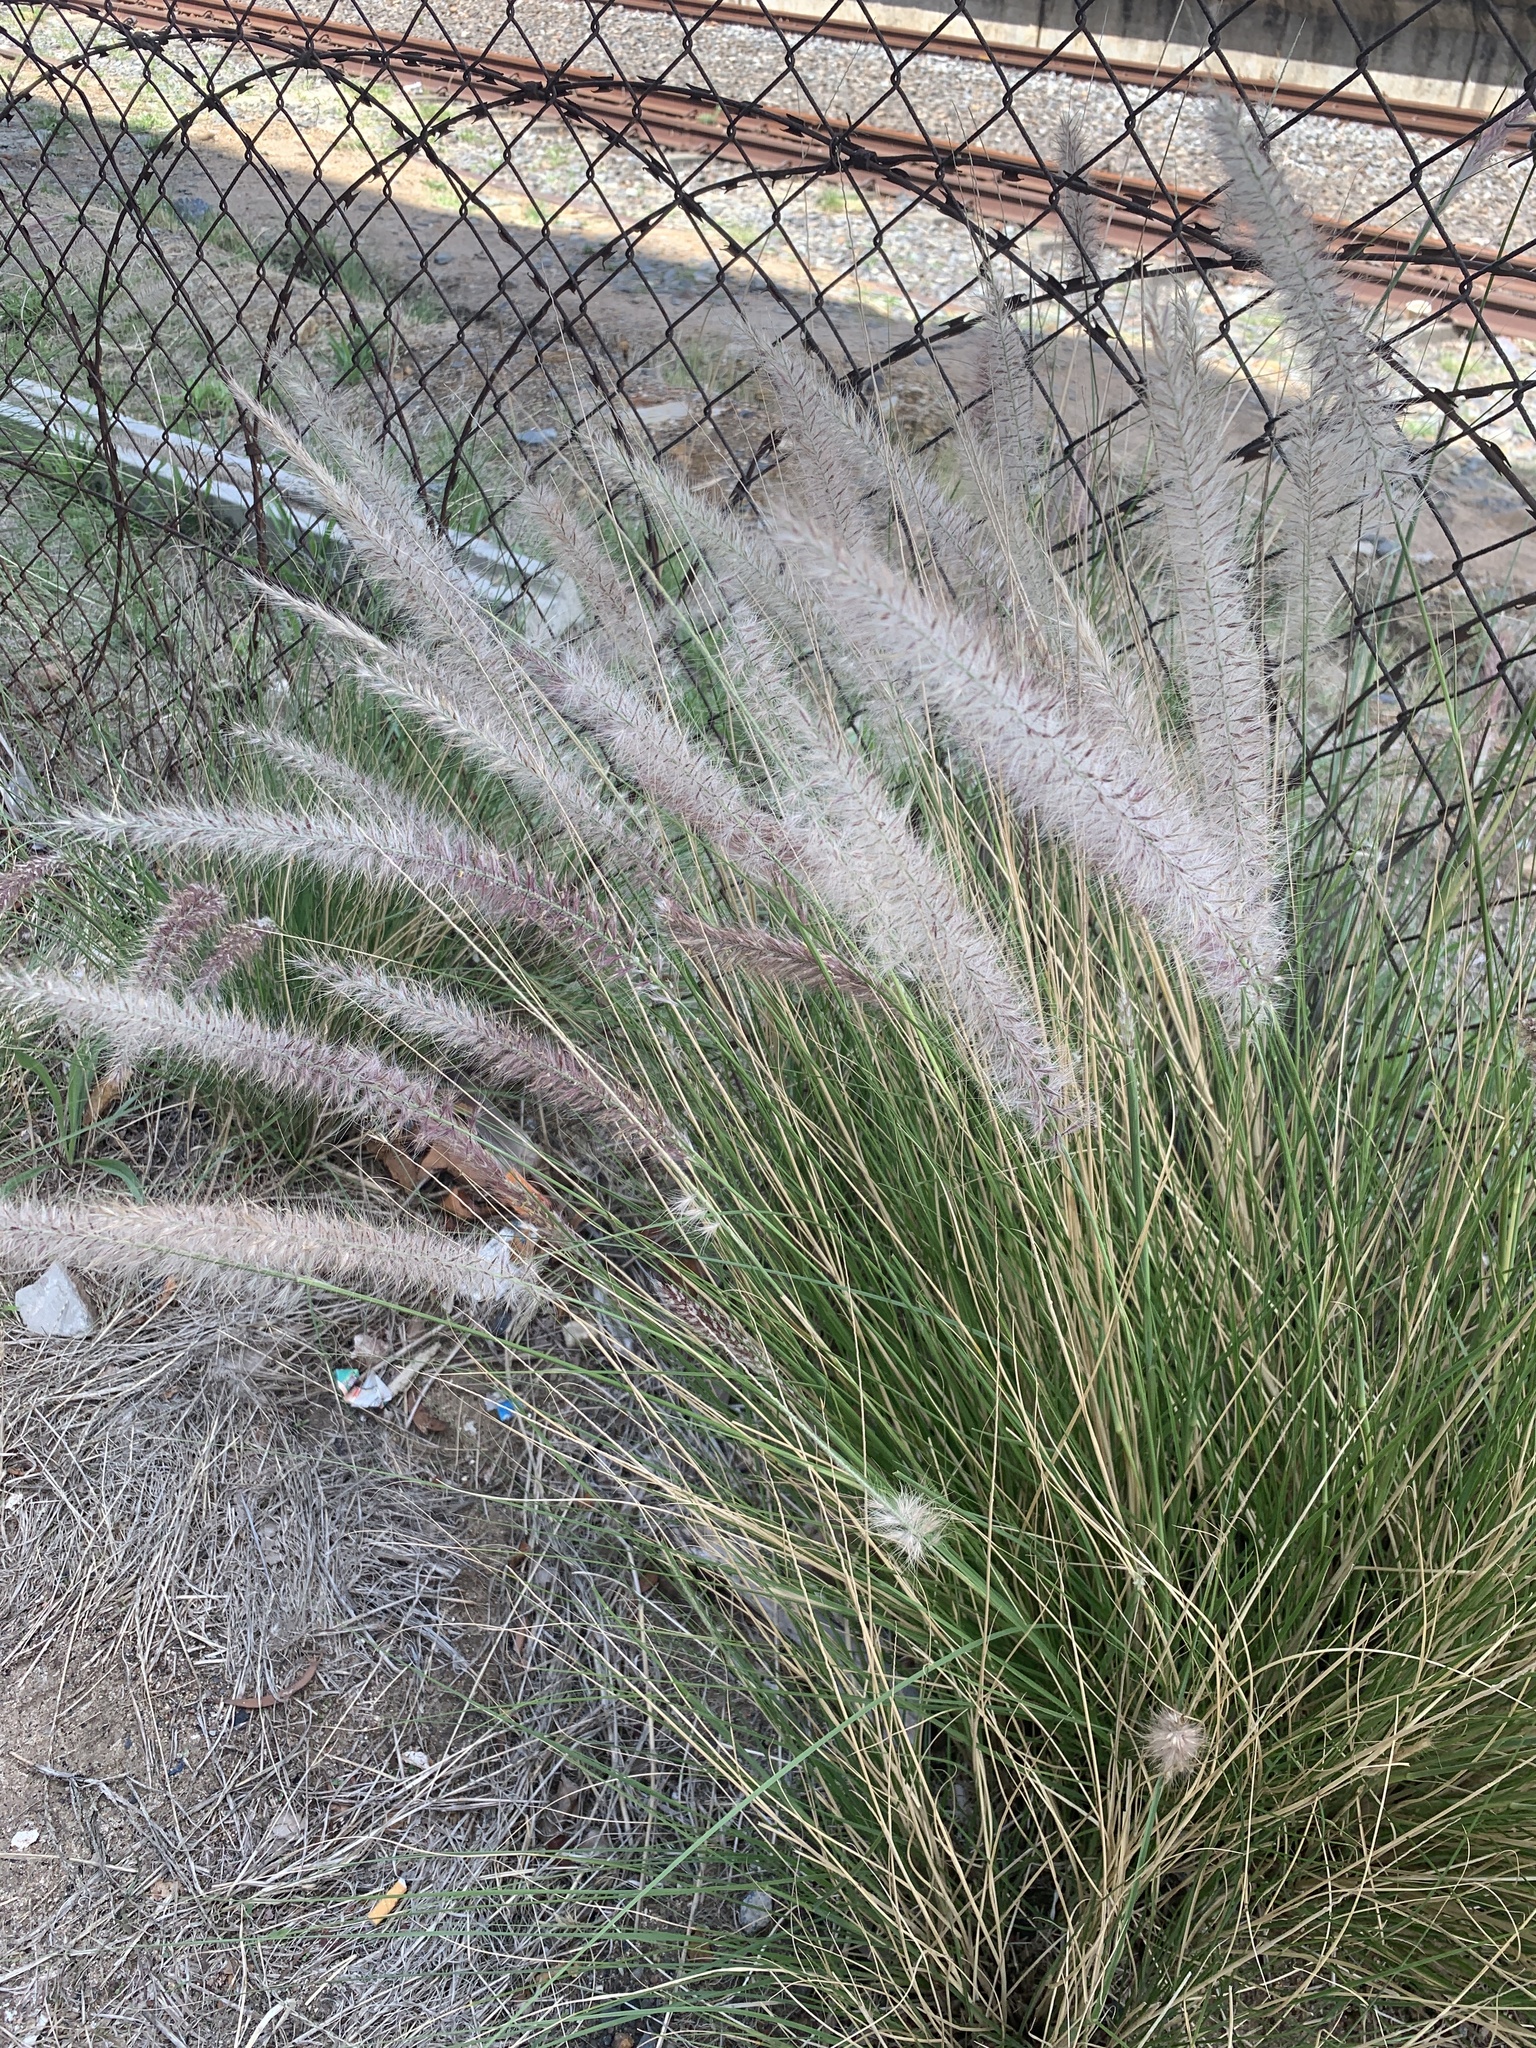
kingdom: Plantae
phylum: Tracheophyta
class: Liliopsida
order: Poales
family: Poaceae
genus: Cenchrus
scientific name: Cenchrus setaceus
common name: Crimson fountaingrass
